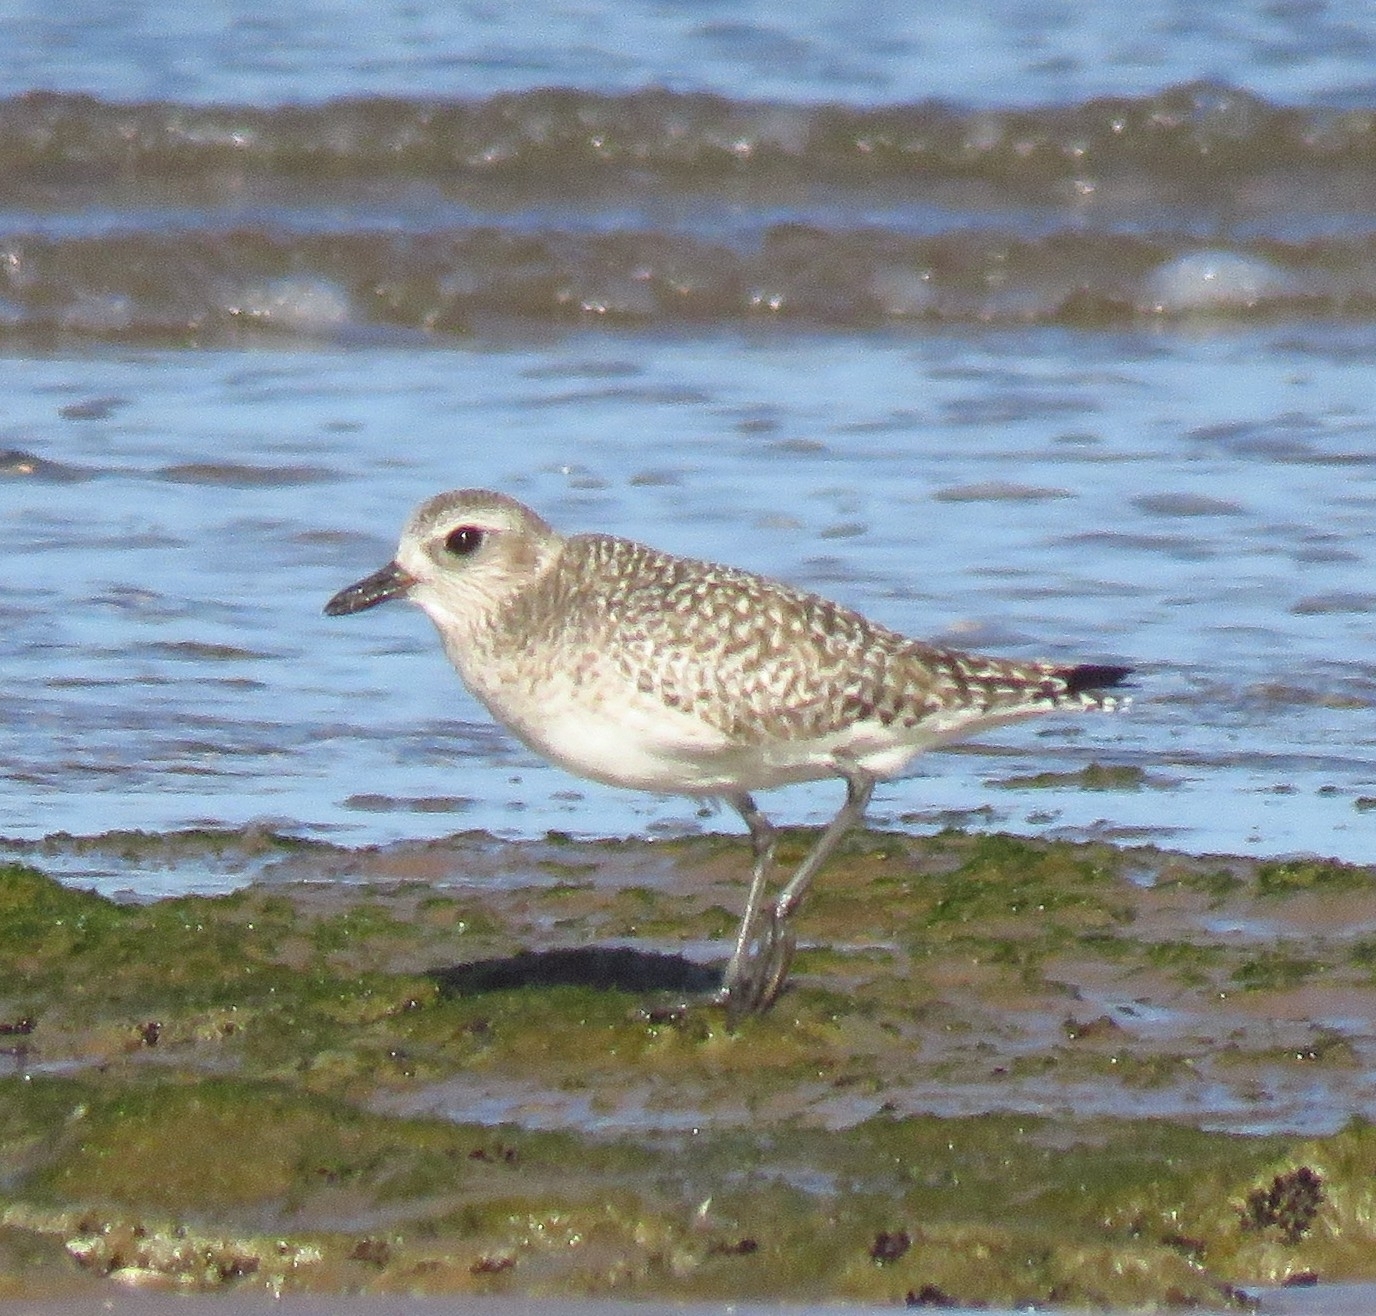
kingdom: Animalia
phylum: Chordata
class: Aves
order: Charadriiformes
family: Charadriidae
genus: Pluvialis
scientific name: Pluvialis squatarola
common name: Grey plover
